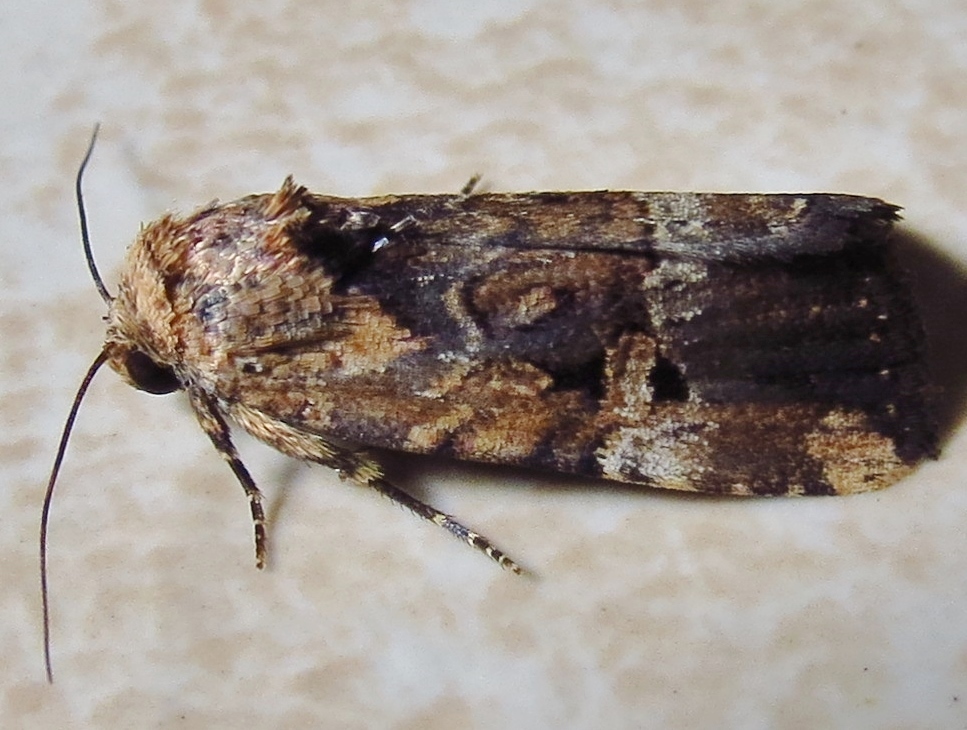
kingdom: Animalia
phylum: Arthropoda
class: Insecta
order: Lepidoptera
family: Noctuidae
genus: Elaphria
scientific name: Elaphria chalcedonia
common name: Chalcedony midget
